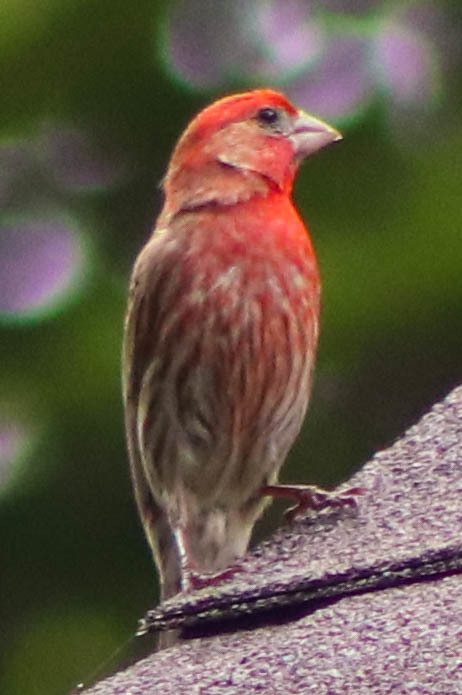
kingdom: Animalia
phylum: Chordata
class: Aves
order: Passeriformes
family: Fringillidae
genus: Haemorhous
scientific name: Haemorhous mexicanus
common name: House finch
